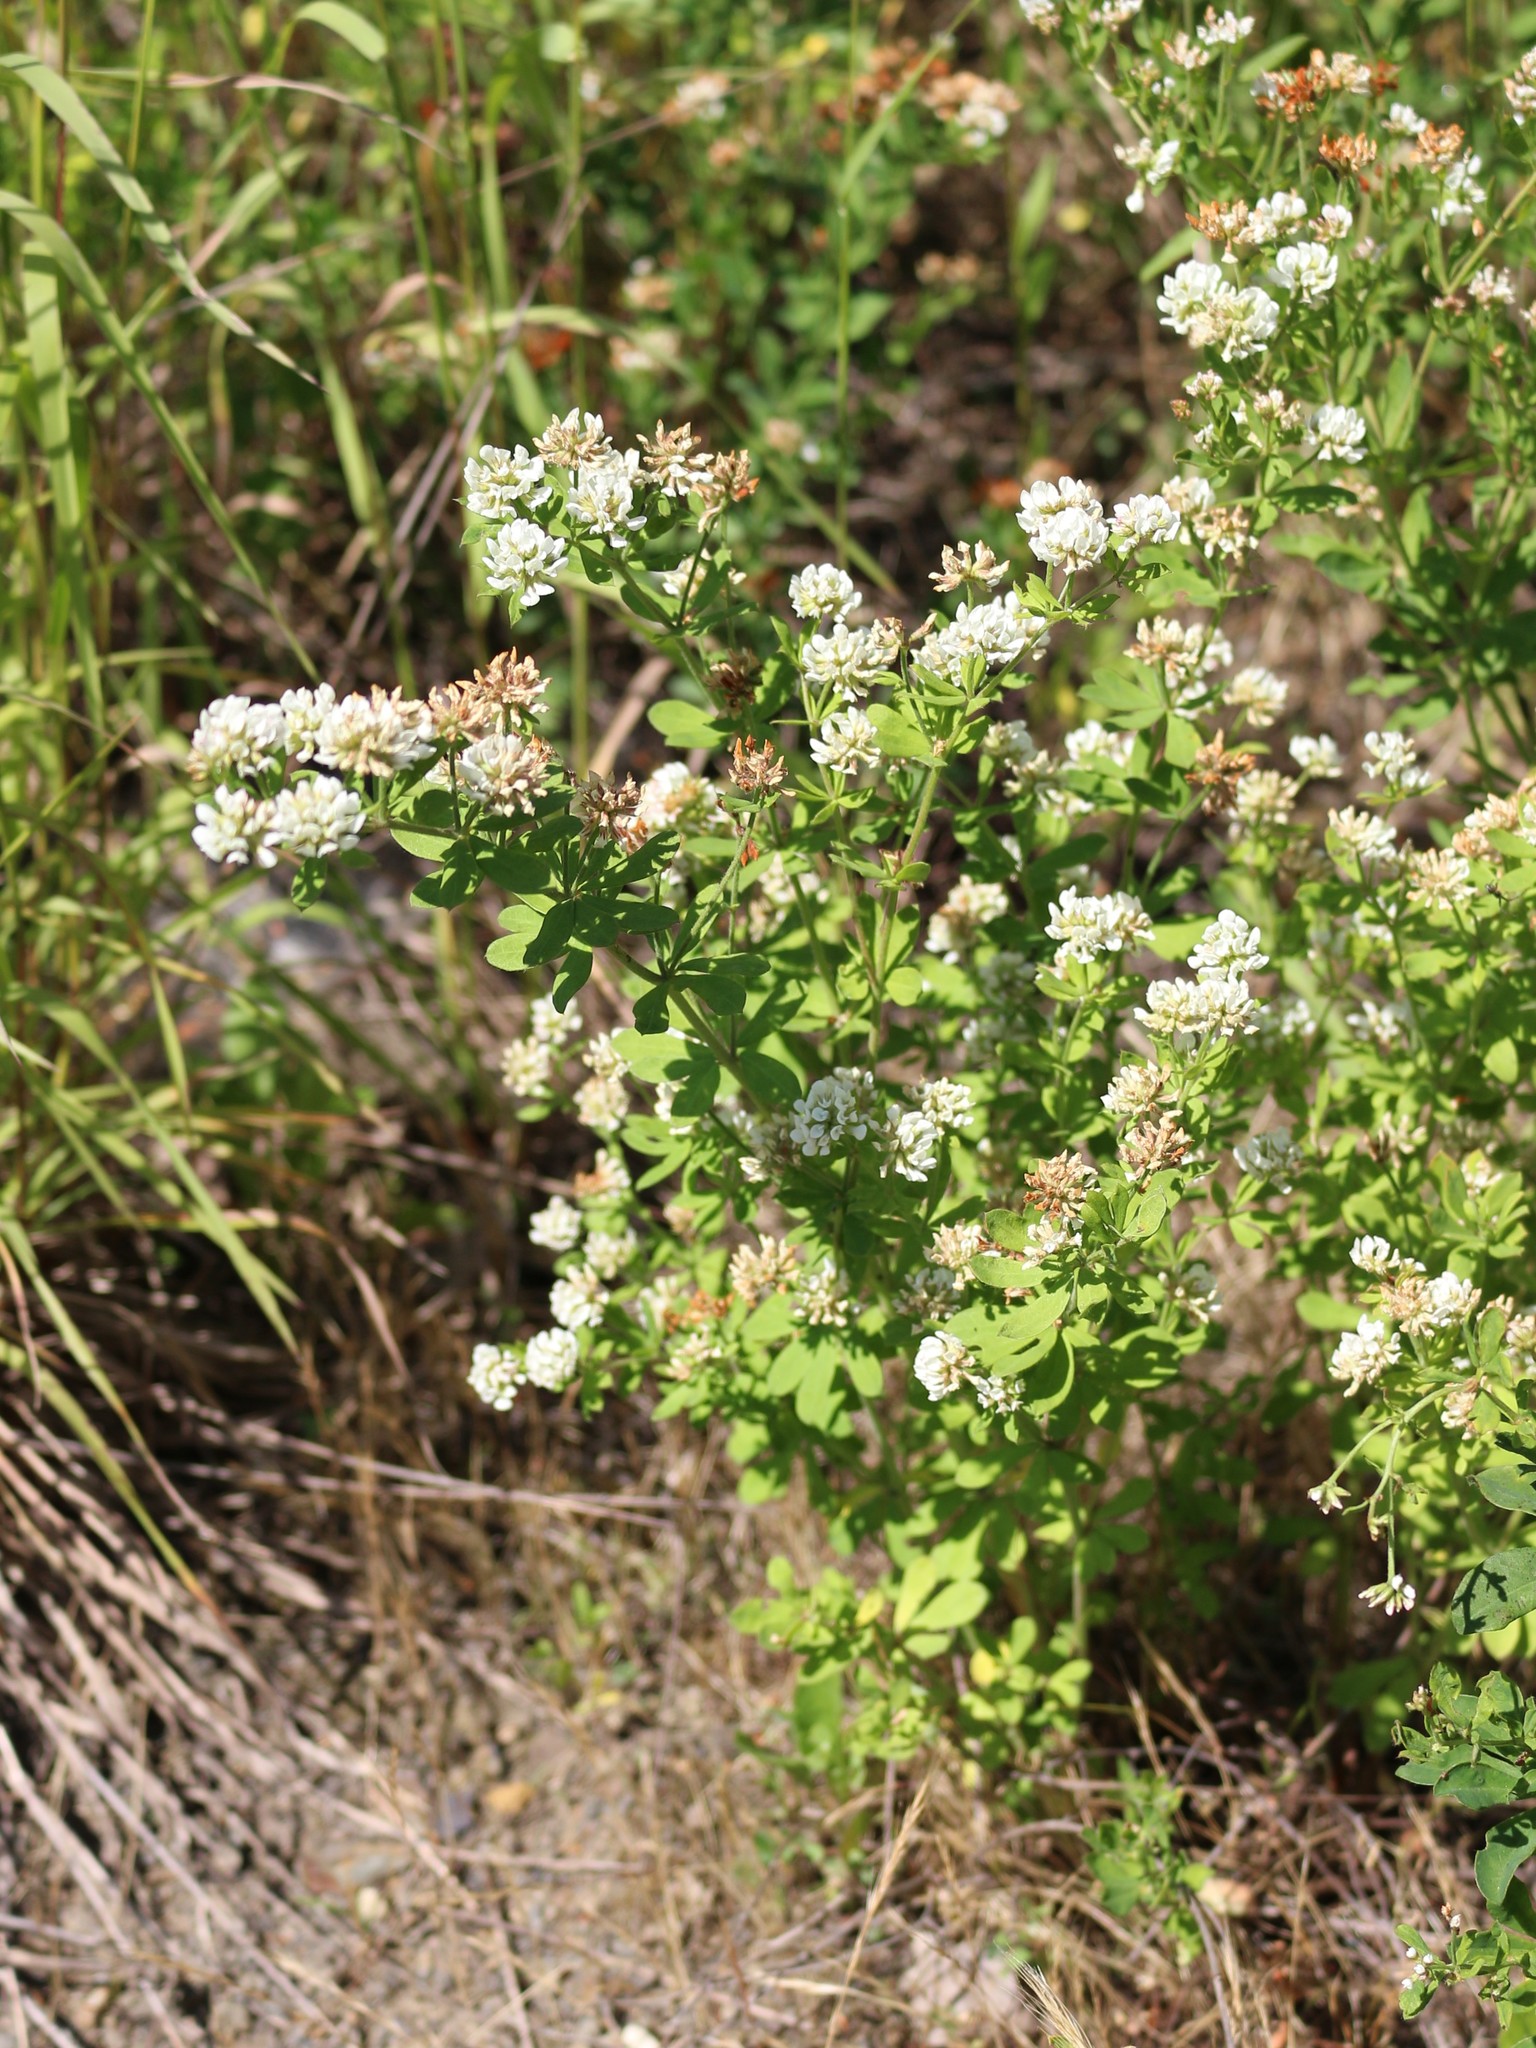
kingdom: Plantae
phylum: Tracheophyta
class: Magnoliopsida
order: Fabales
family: Fabaceae
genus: Lotus
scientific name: Lotus graecus
